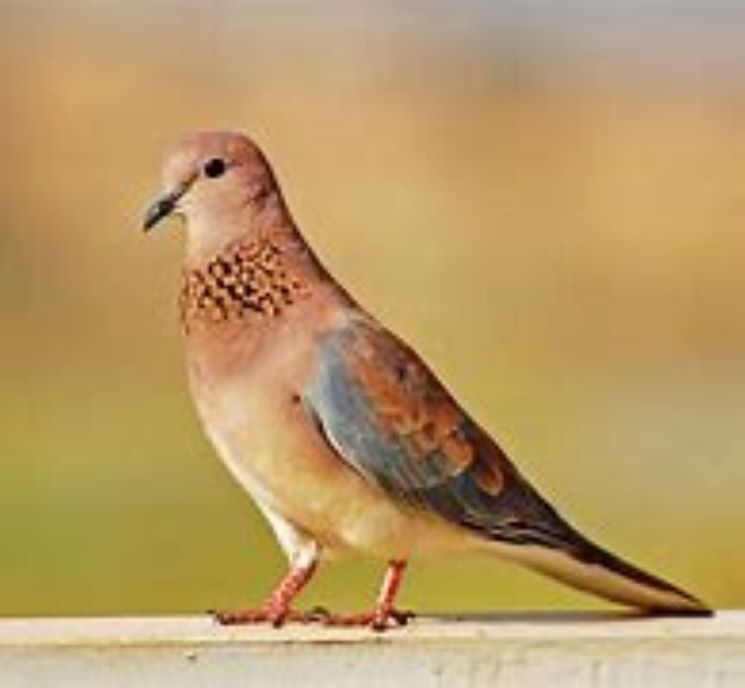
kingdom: Animalia
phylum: Chordata
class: Aves
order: Columbiformes
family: Columbidae
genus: Spilopelia
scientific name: Spilopelia senegalensis
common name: Laughing dove
